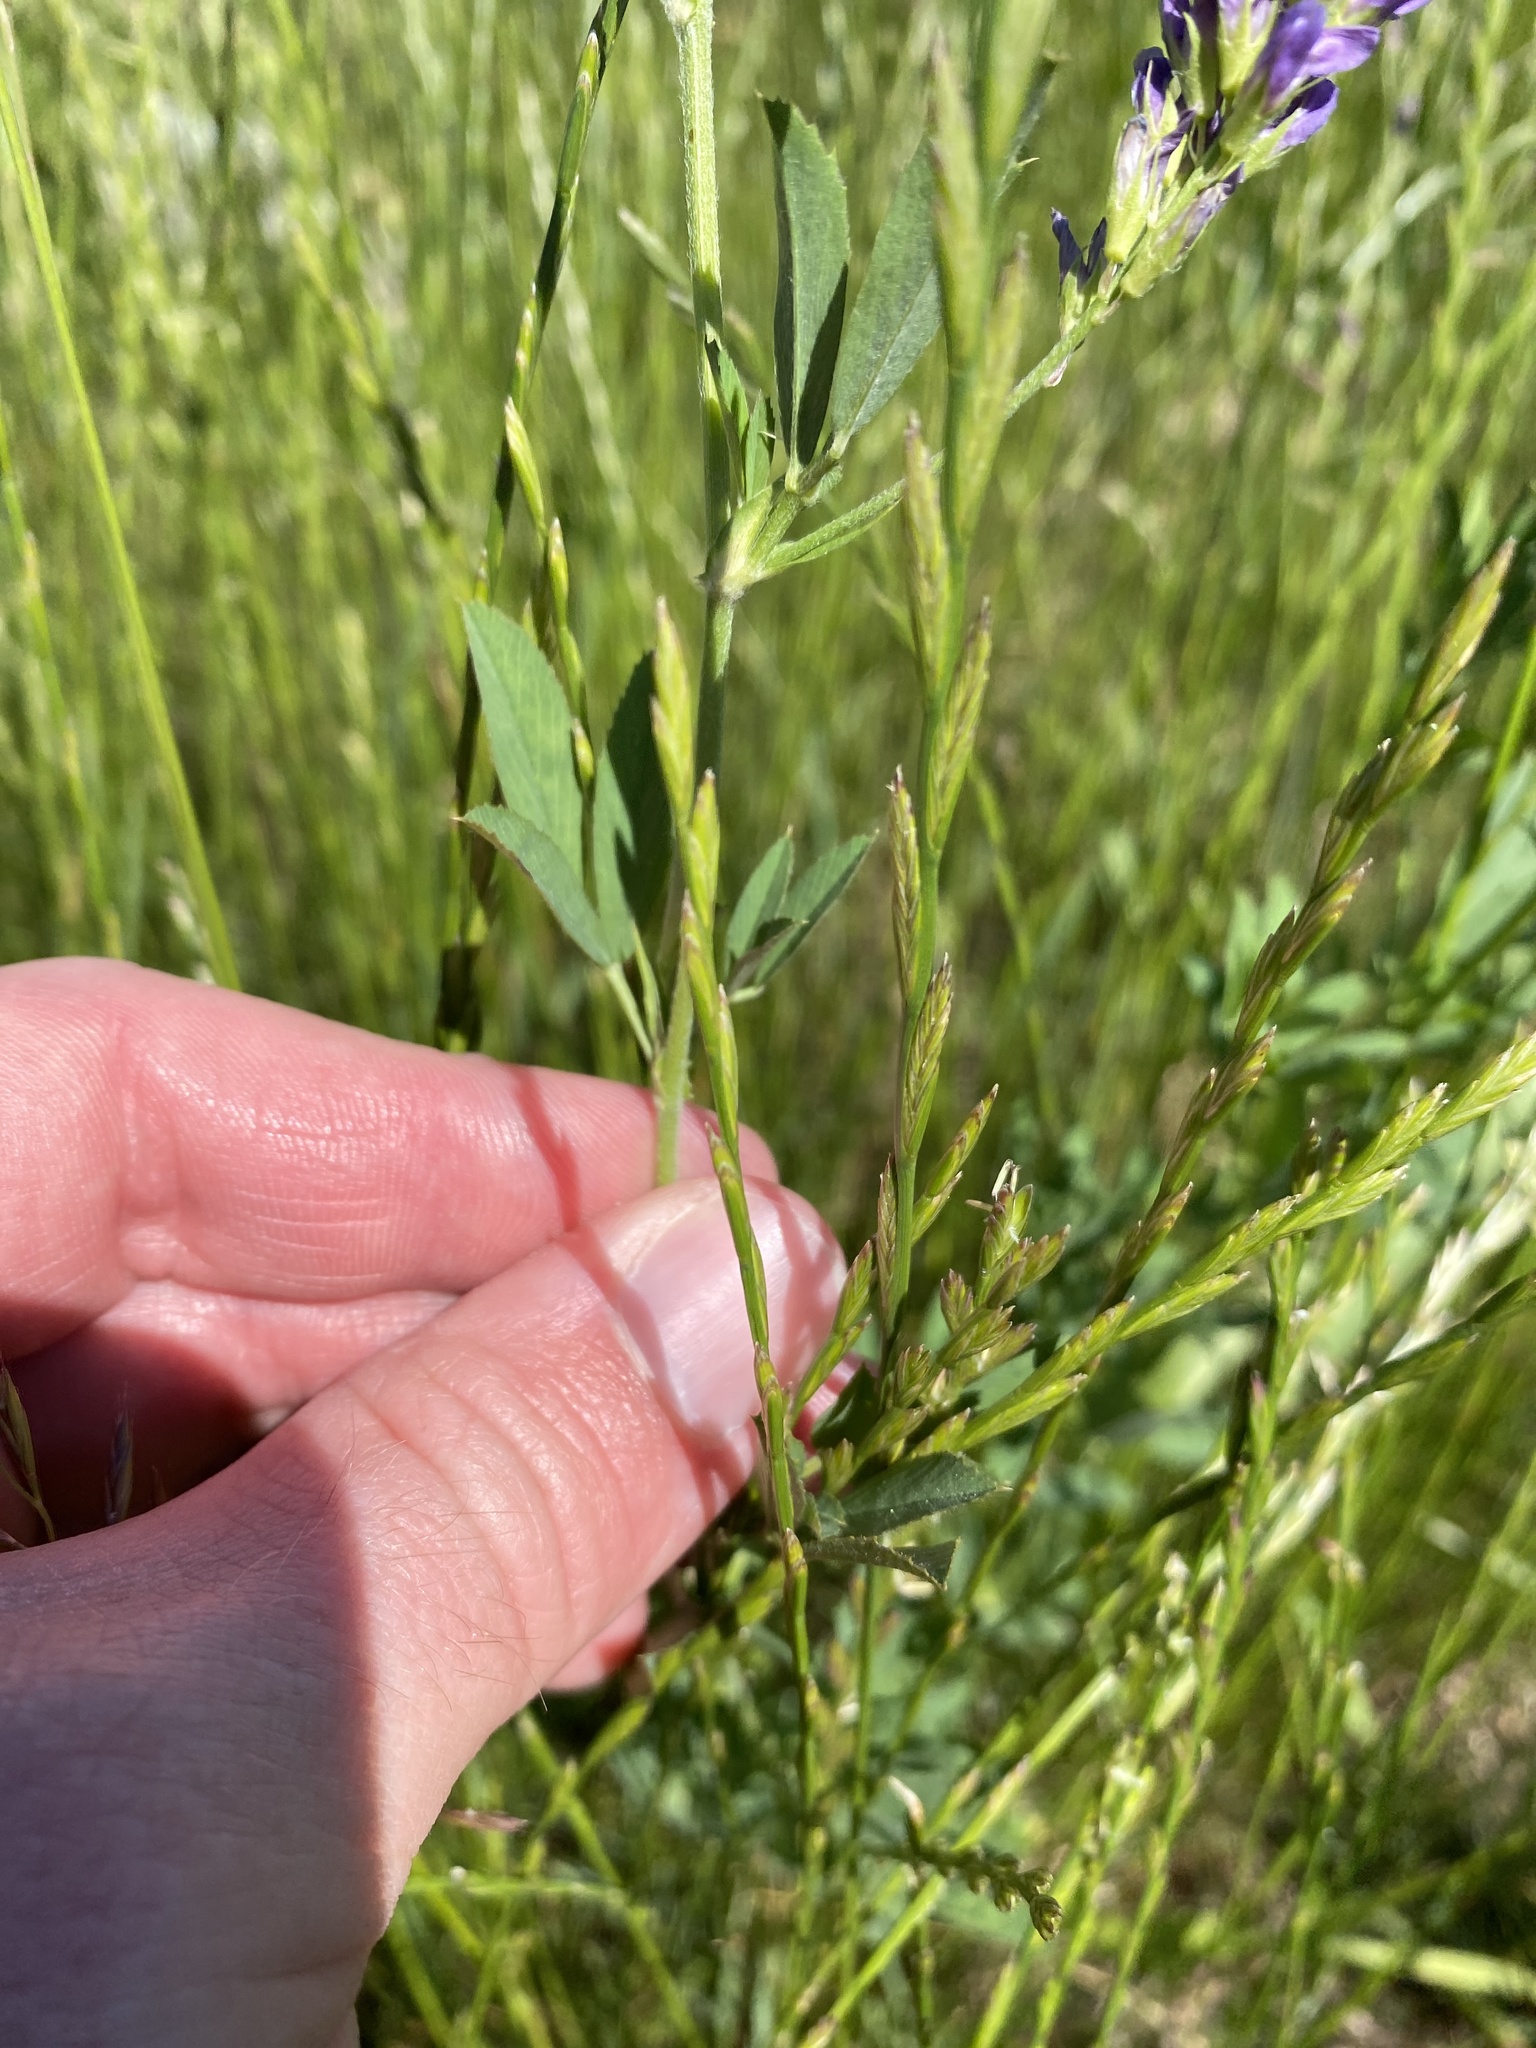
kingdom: Plantae
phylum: Tracheophyta
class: Magnoliopsida
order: Fabales
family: Fabaceae
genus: Medicago
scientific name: Medicago sativa
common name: Alfalfa
